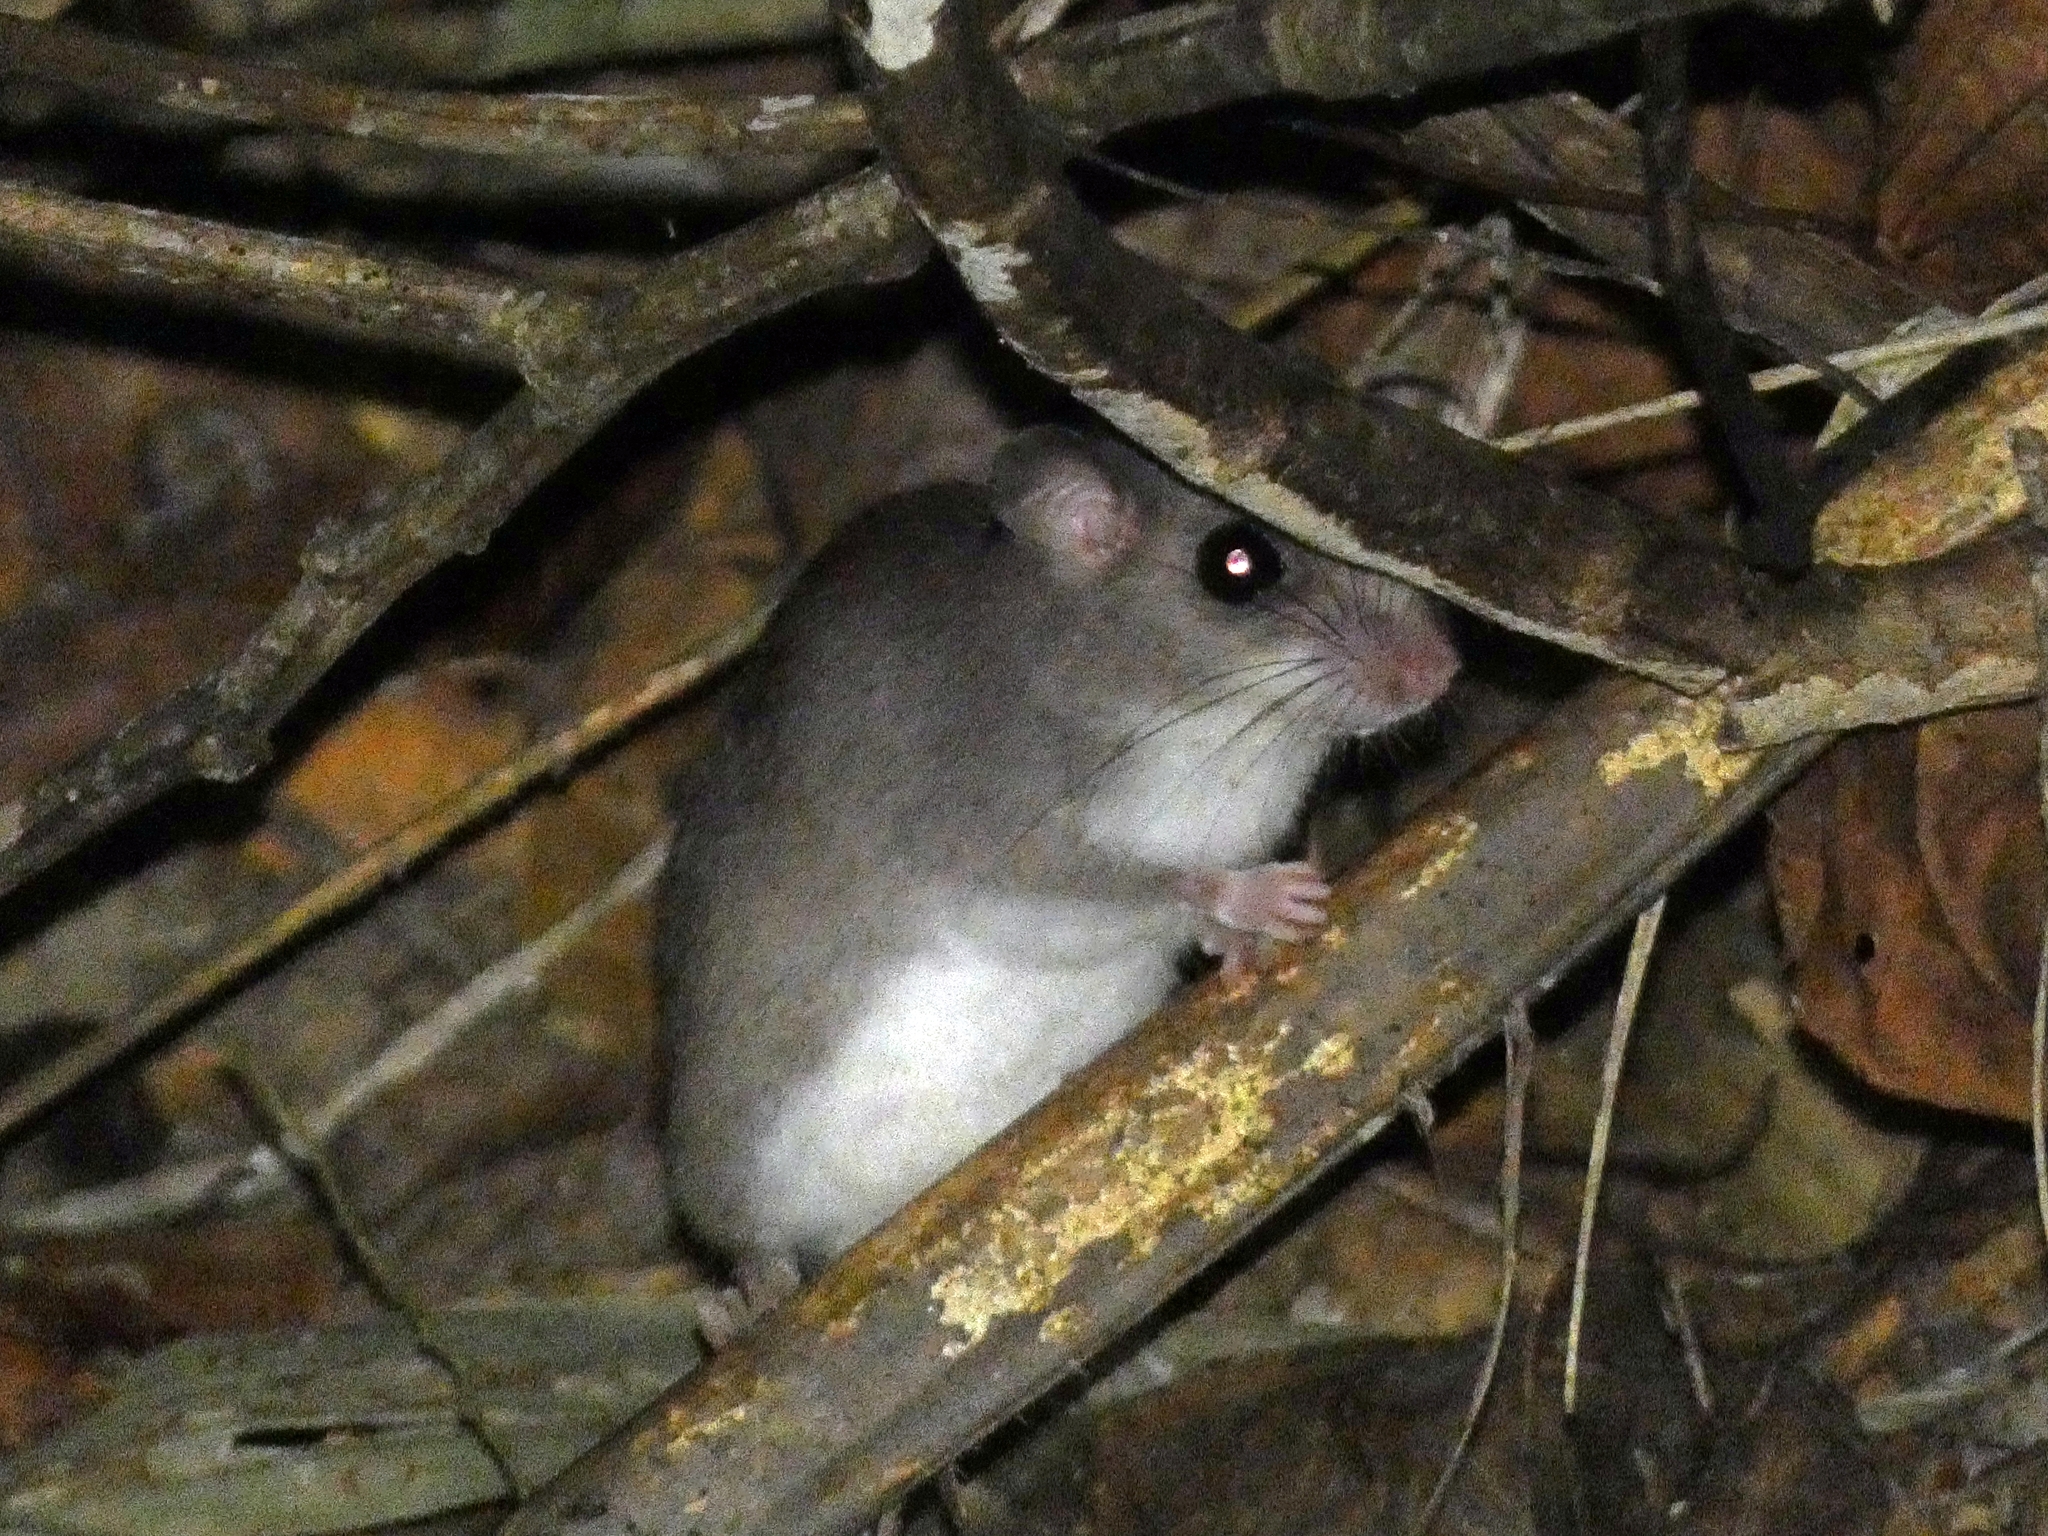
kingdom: Animalia
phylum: Chordata
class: Mammalia
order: Rodentia
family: Muridae
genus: Pogonomys
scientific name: Pogonomys macrourus
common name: Chestnut pogonomys
